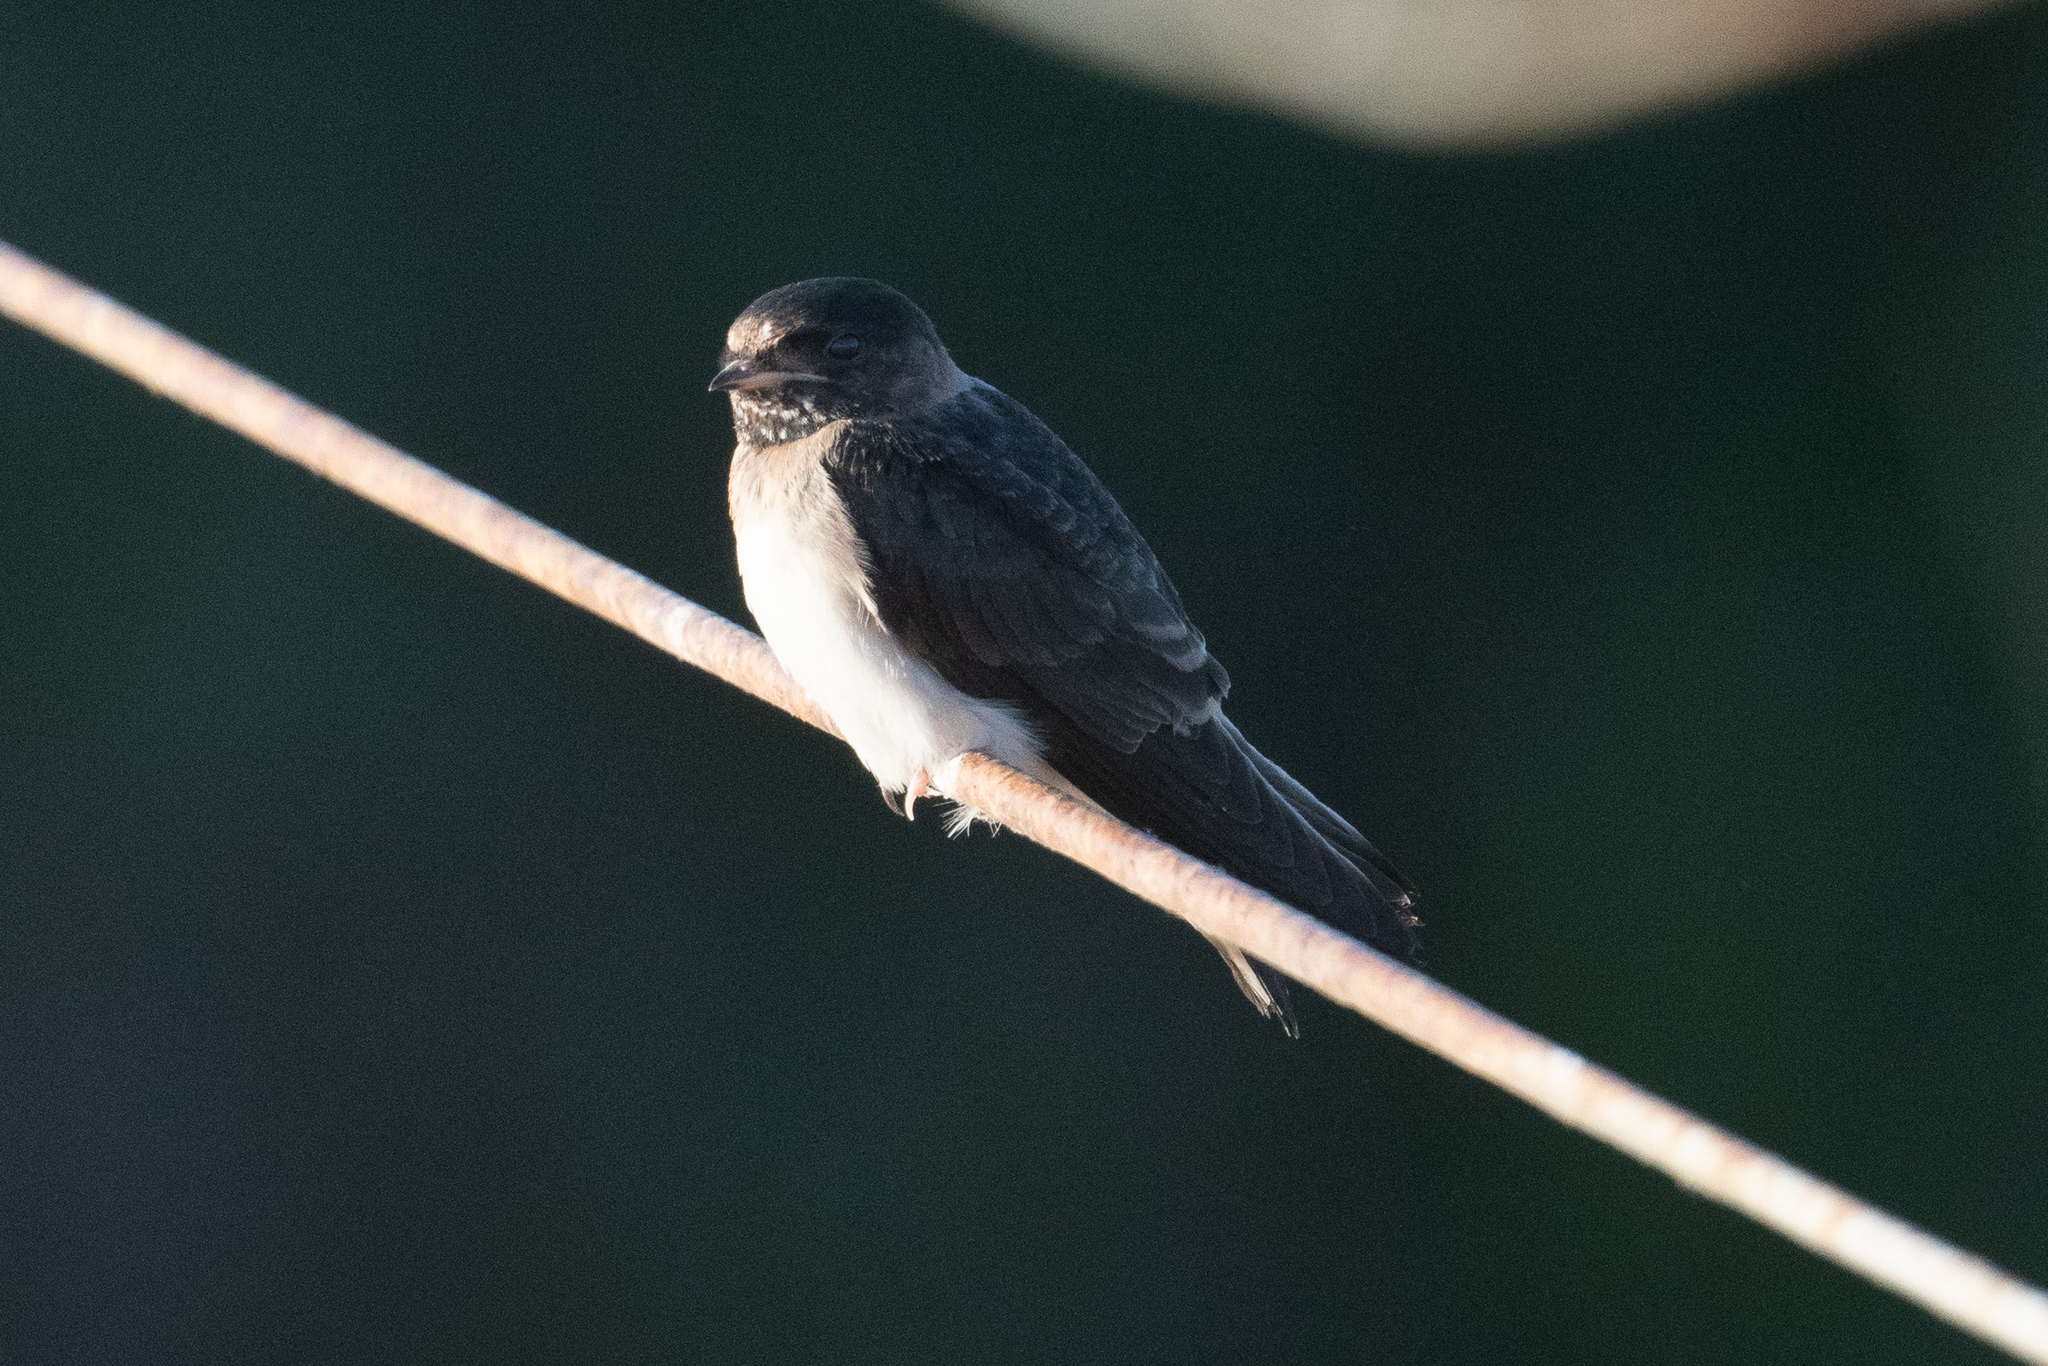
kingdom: Animalia
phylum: Chordata
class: Aves
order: Passeriformes
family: Hirundinidae
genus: Petrochelidon
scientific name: Petrochelidon pyrrhonota
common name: American cliff swallow
